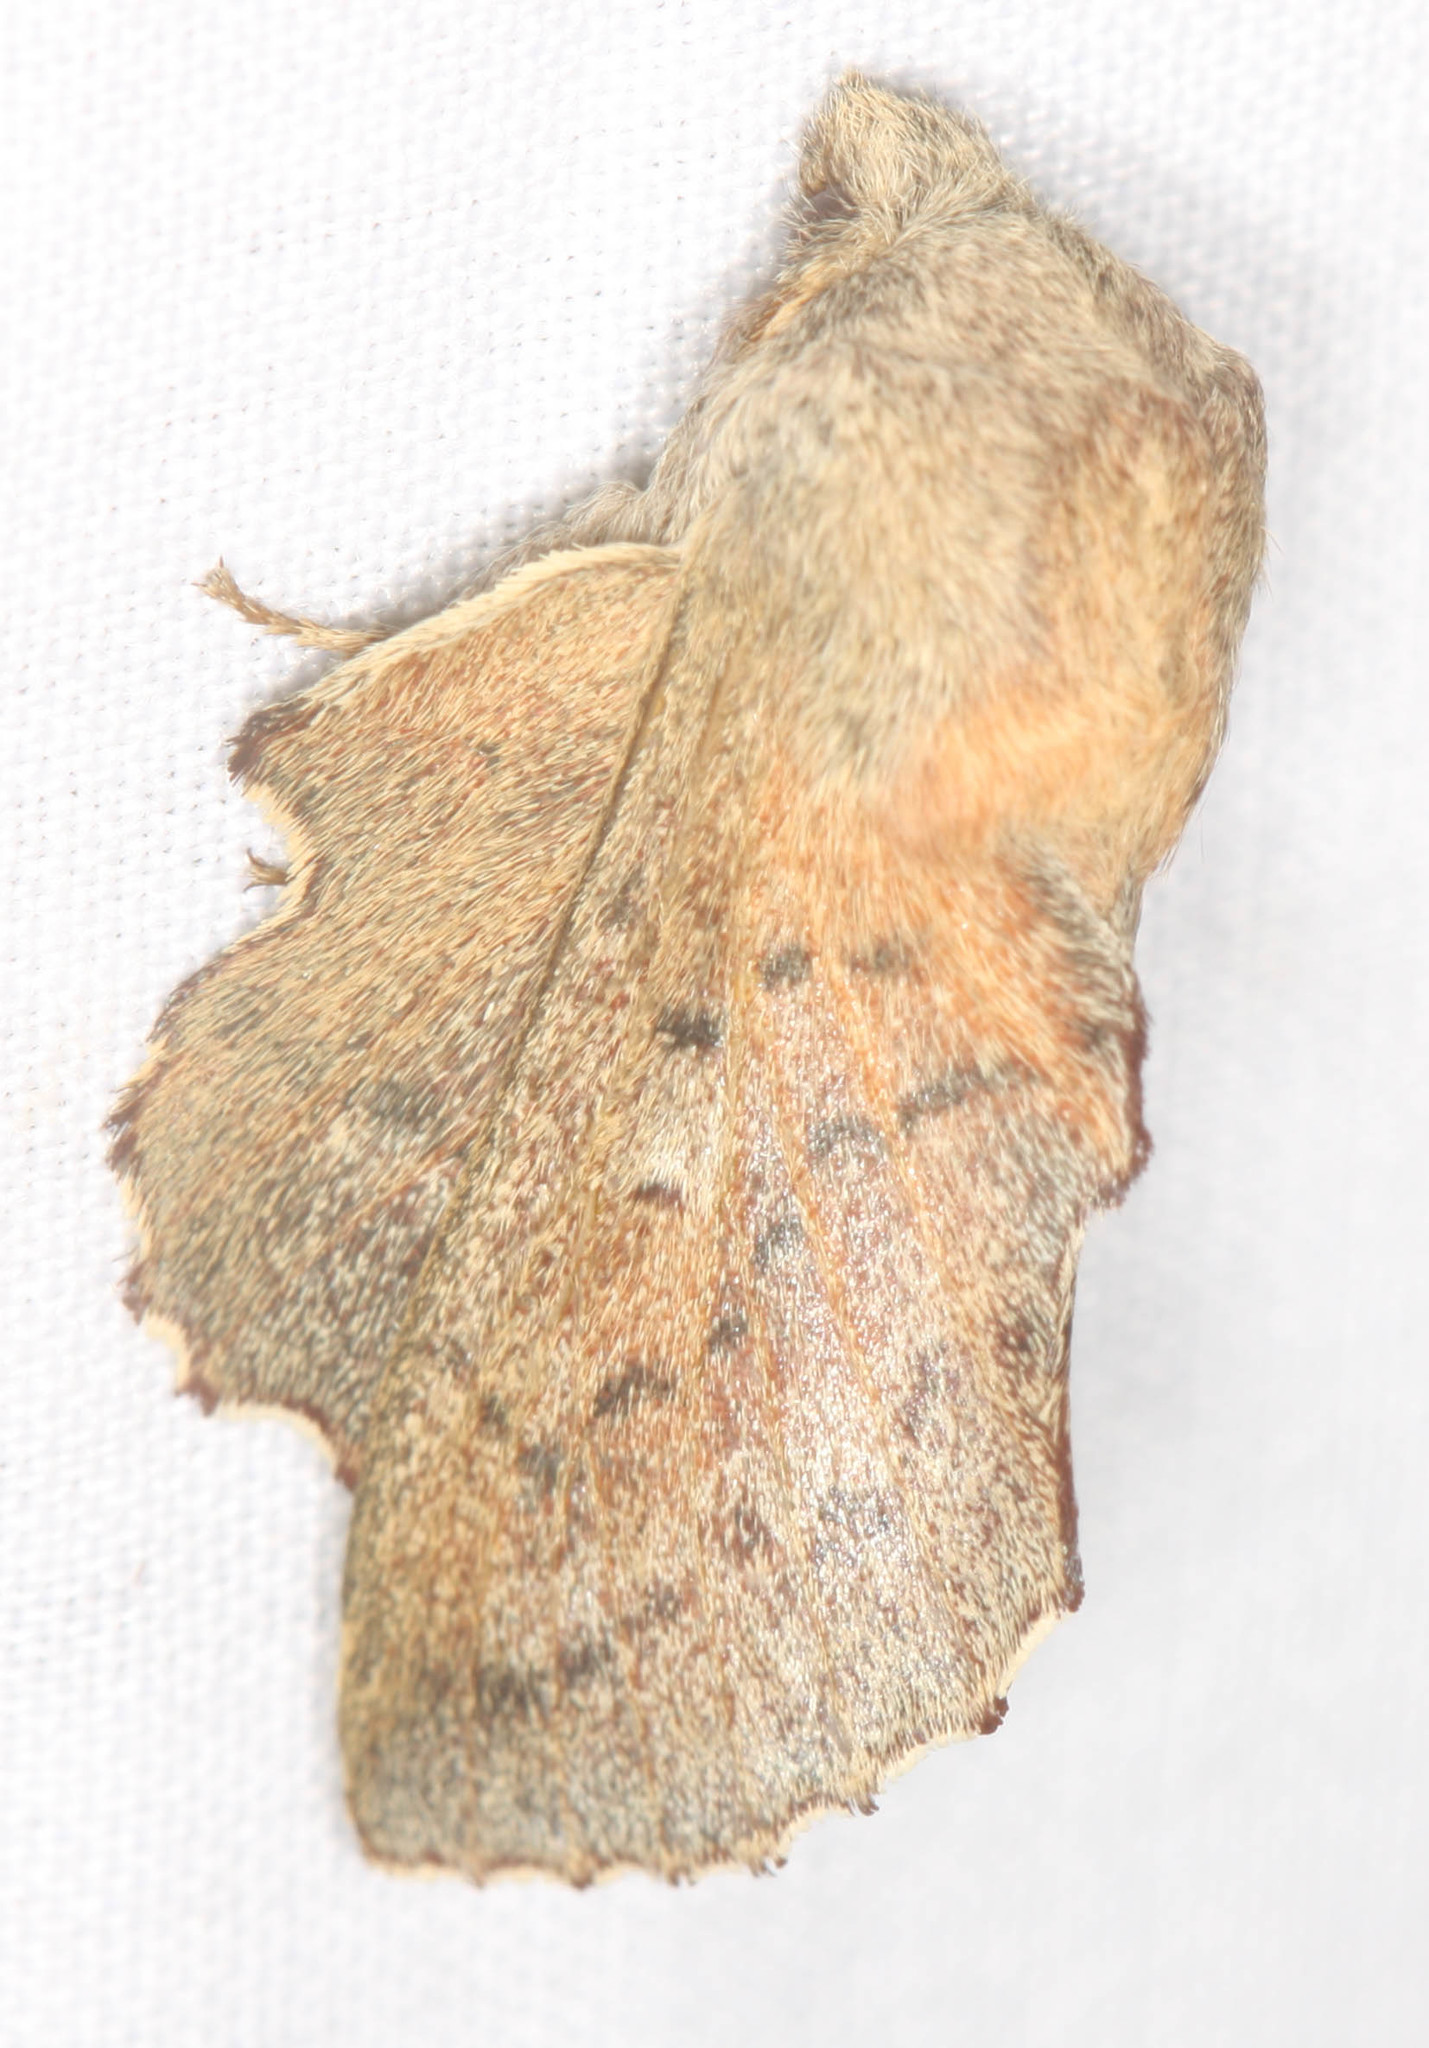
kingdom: Animalia
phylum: Arthropoda
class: Insecta
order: Lepidoptera
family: Lasiocampidae
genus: Phyllodesma
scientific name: Phyllodesma americana
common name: American lappet moth
